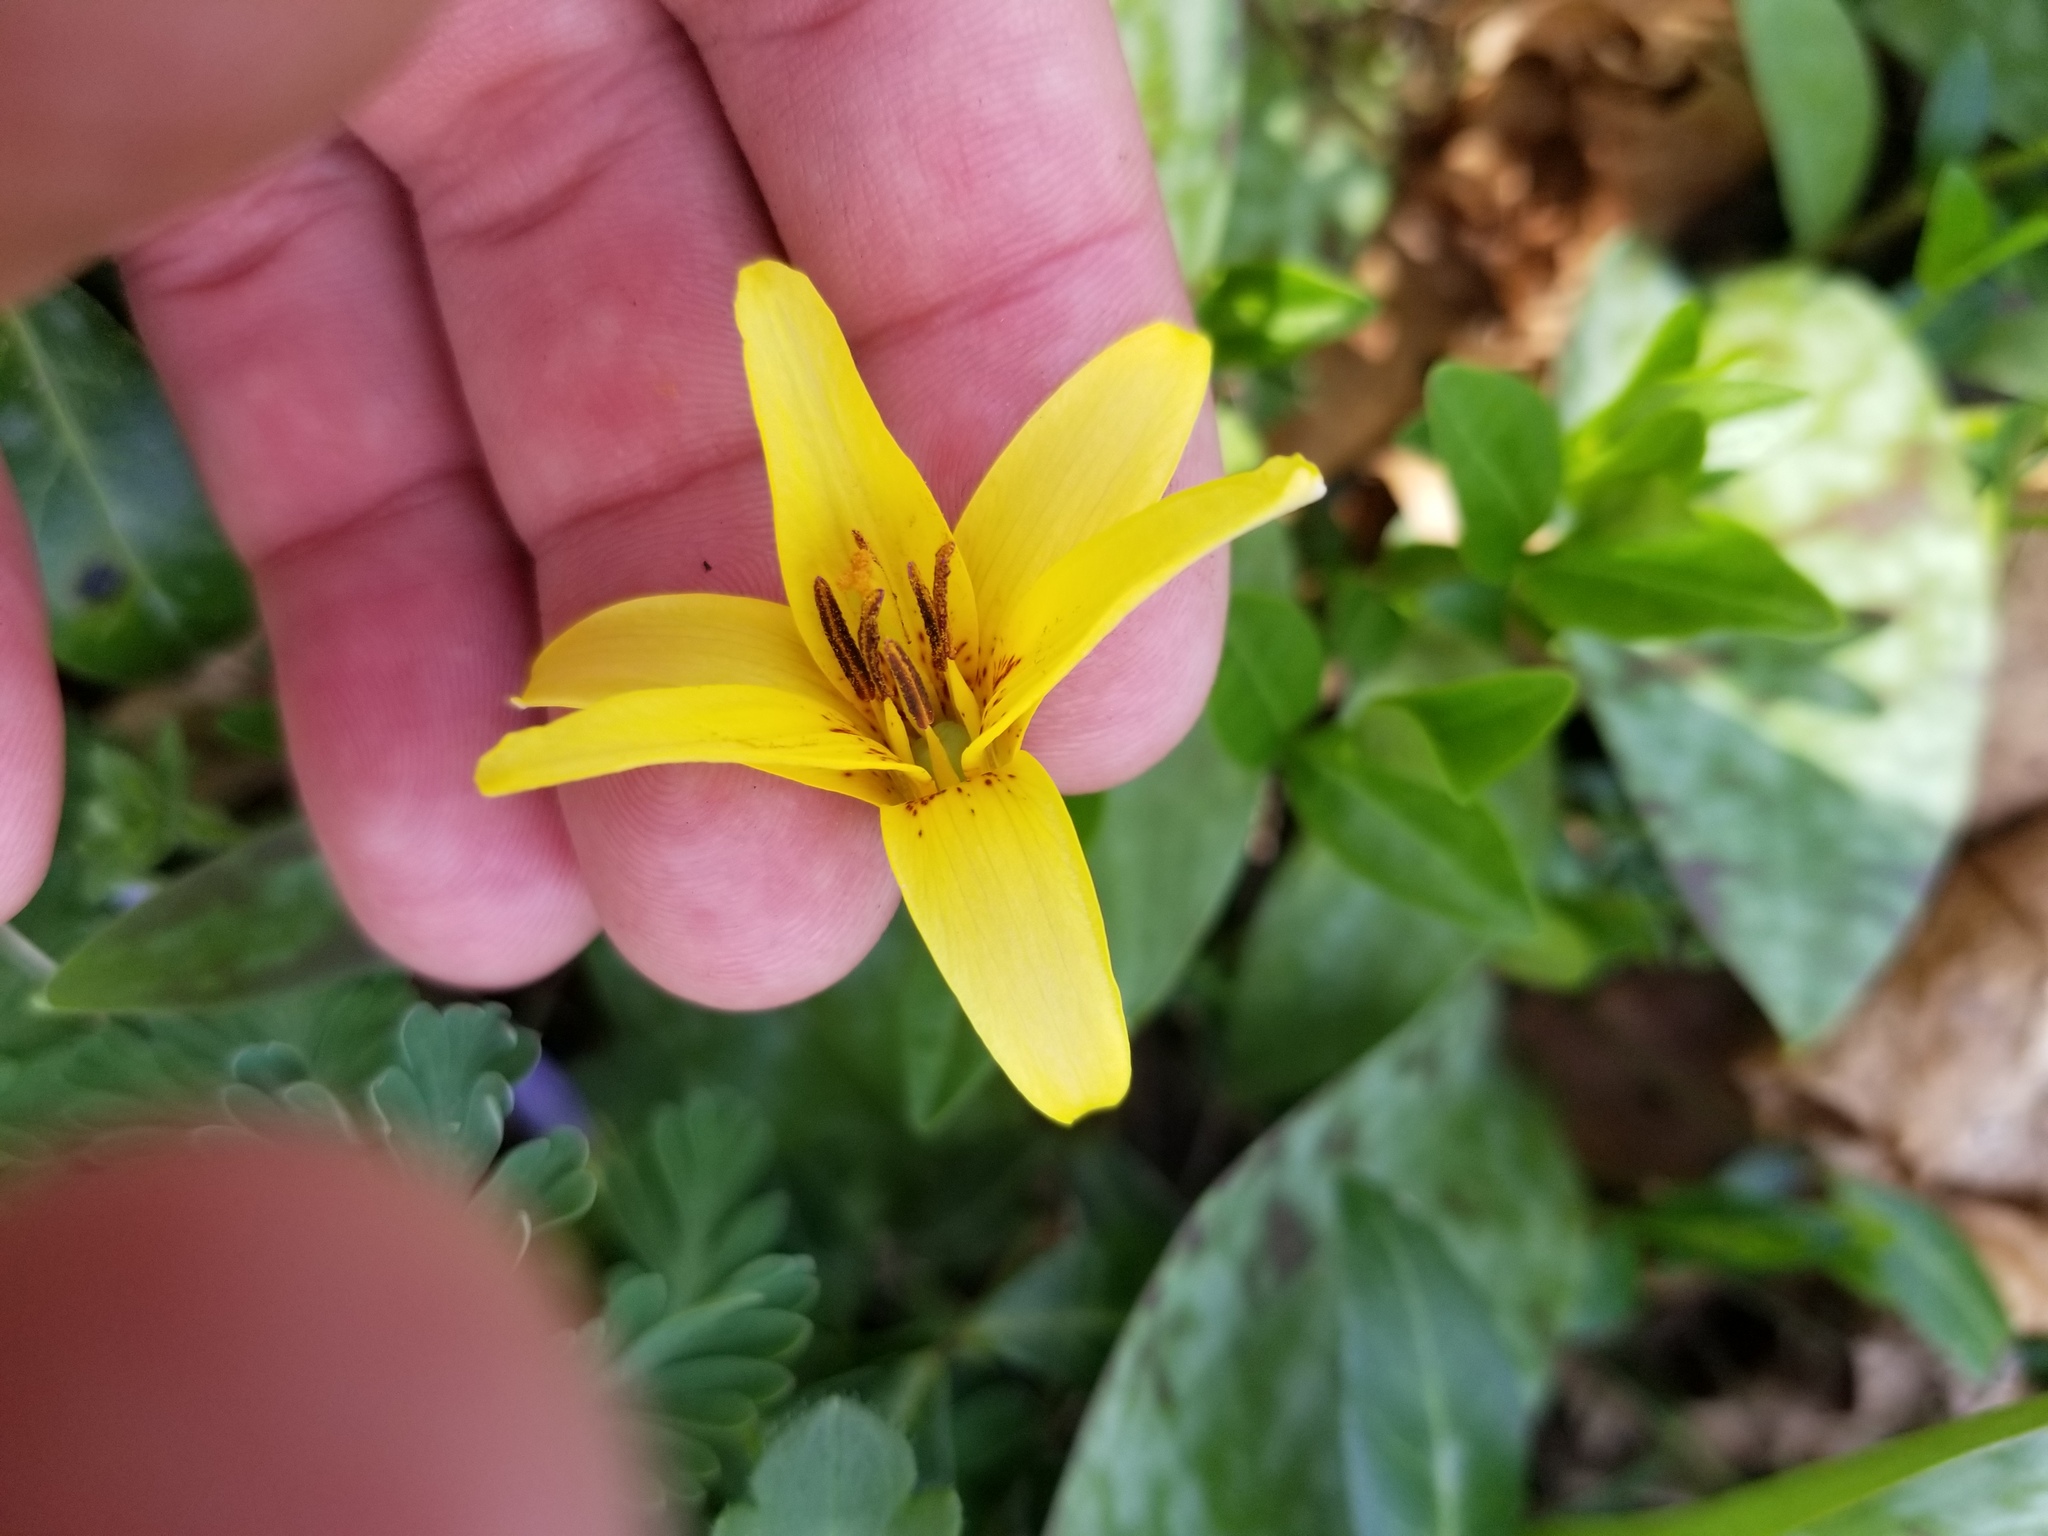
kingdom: Plantae
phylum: Tracheophyta
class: Liliopsida
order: Liliales
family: Liliaceae
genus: Erythronium
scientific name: Erythronium americanum
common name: Yellow adder's-tongue
